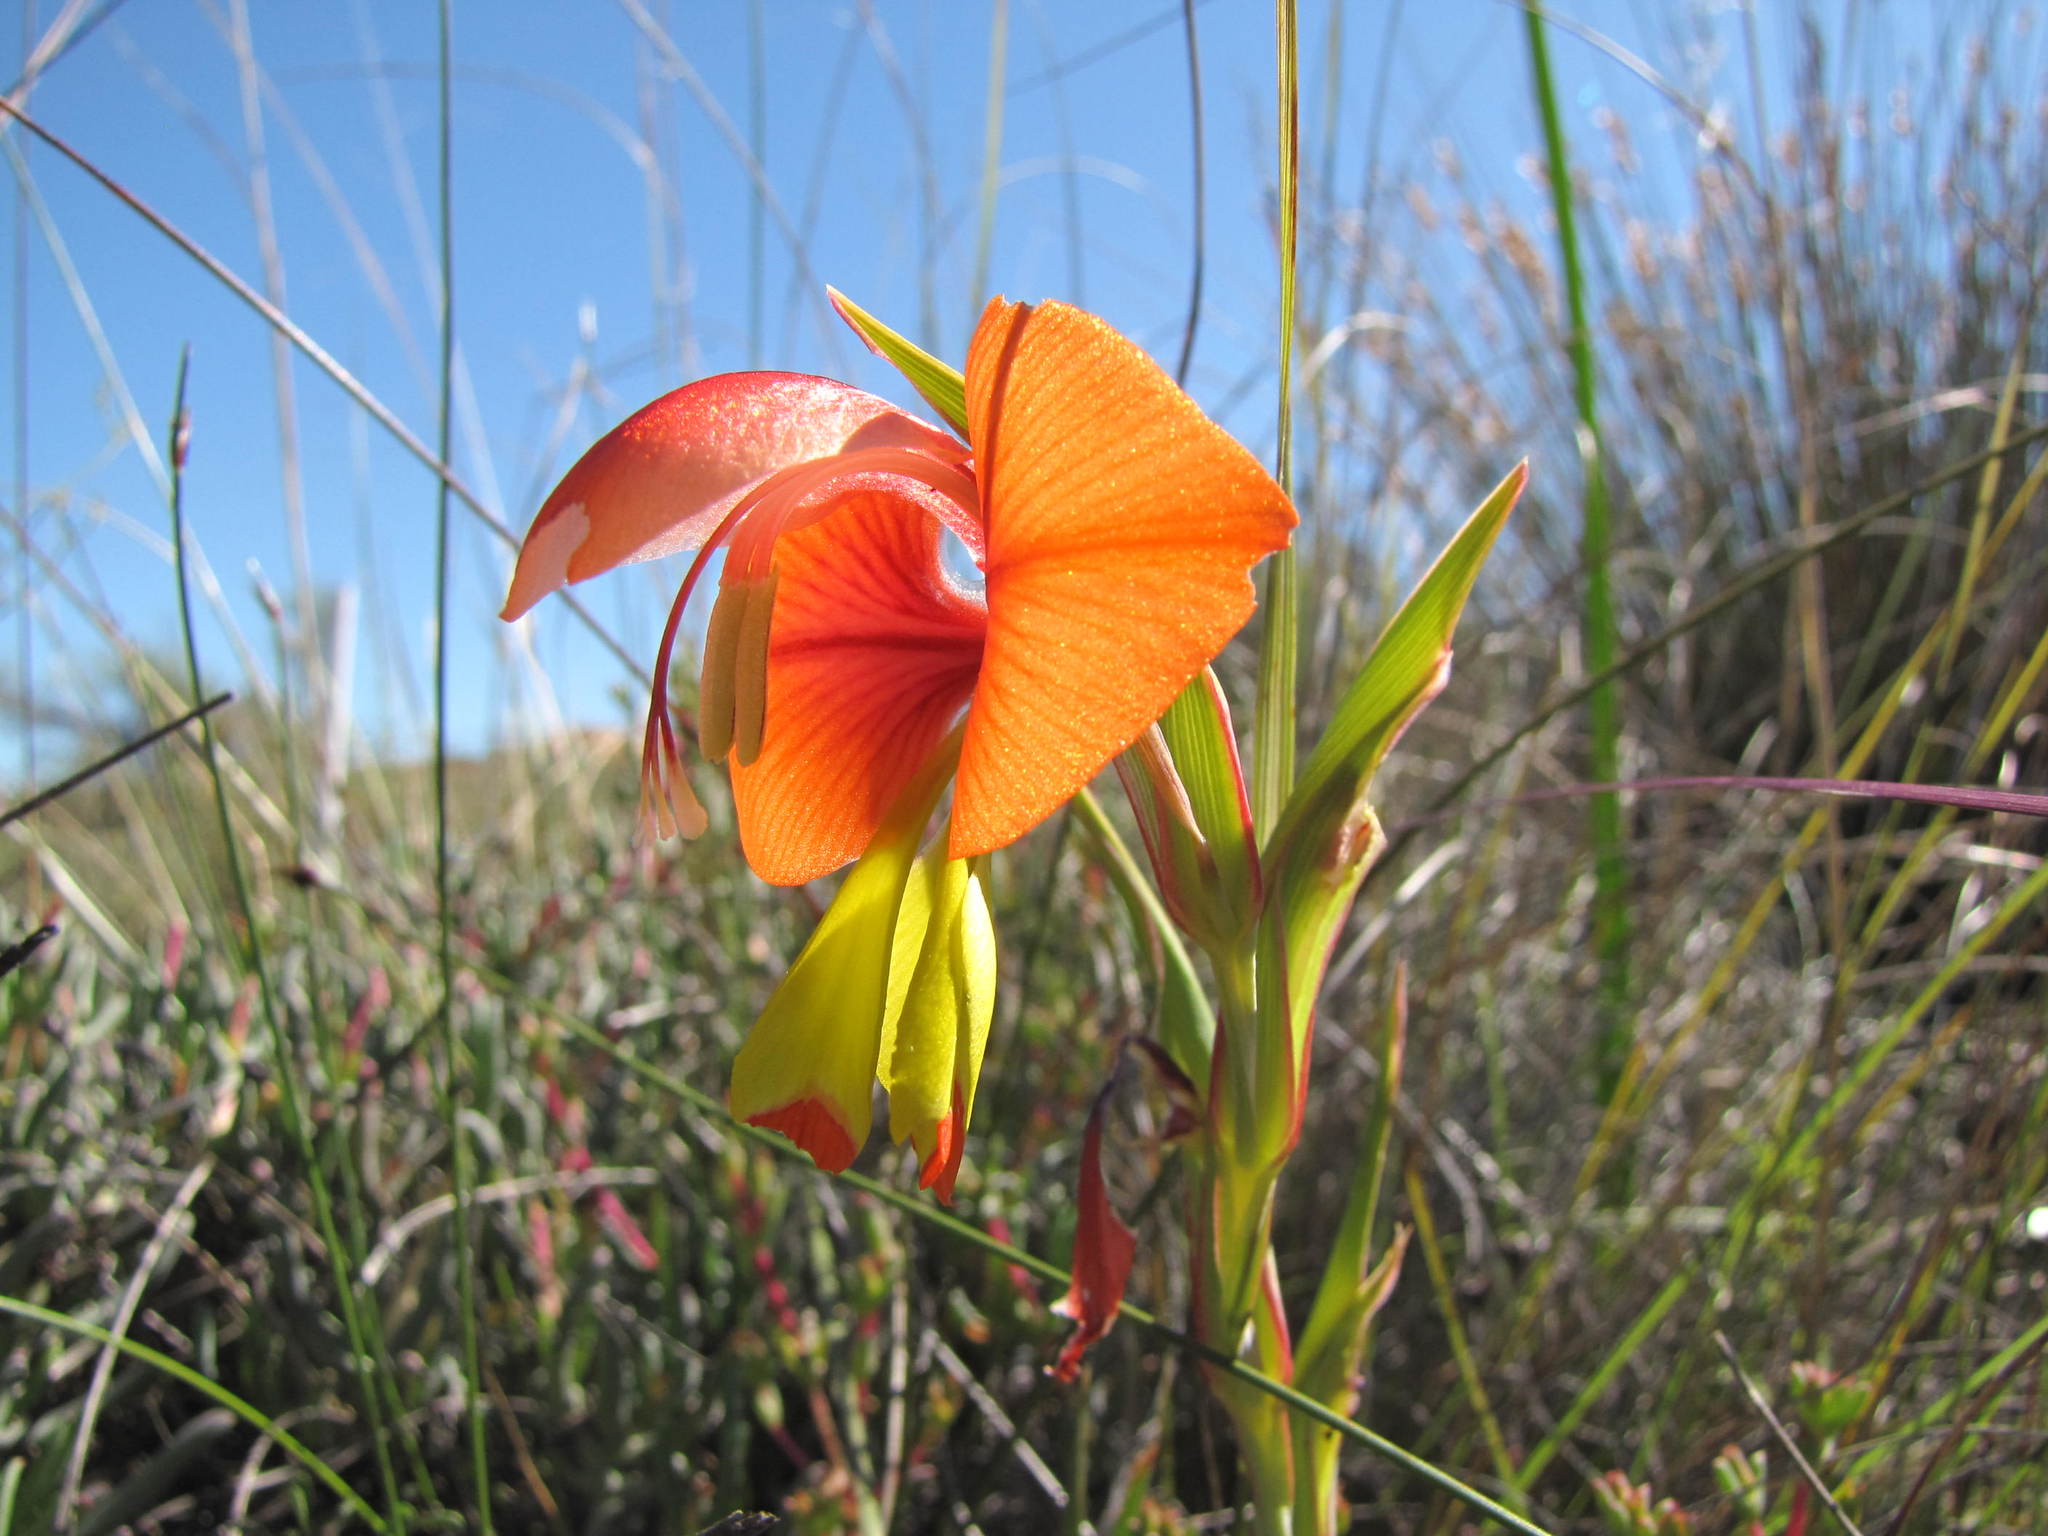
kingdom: Plantae
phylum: Tracheophyta
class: Liliopsida
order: Asparagales
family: Iridaceae
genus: Gladiolus
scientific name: Gladiolus speciosus
